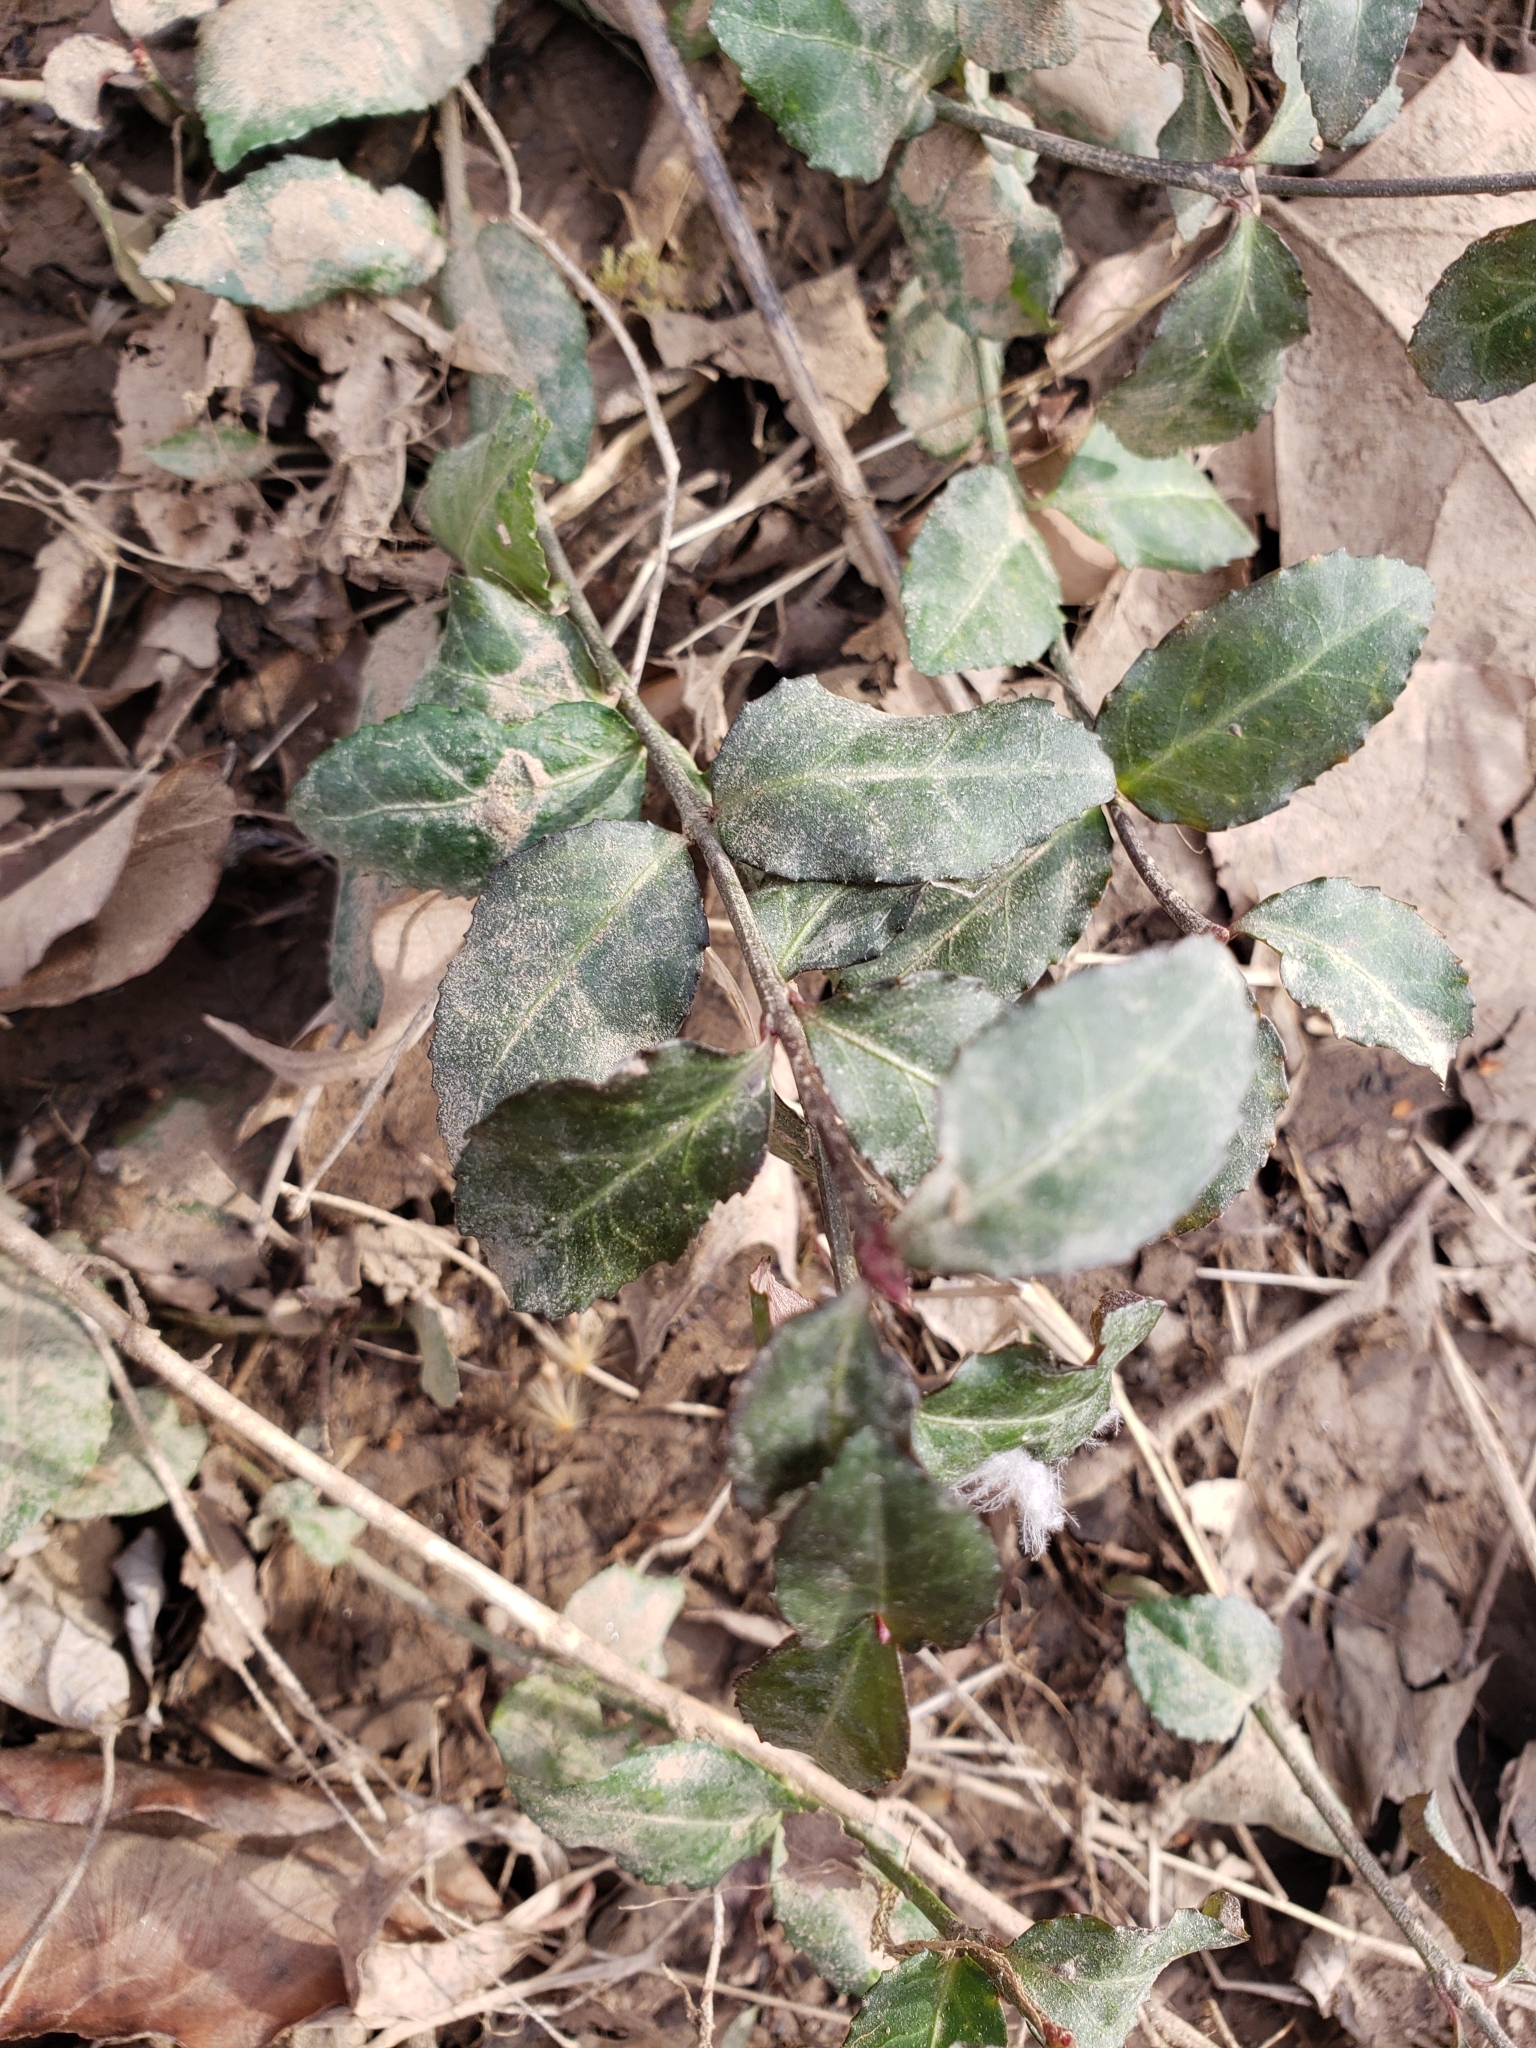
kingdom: Plantae
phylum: Tracheophyta
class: Magnoliopsida
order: Celastrales
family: Celastraceae
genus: Euonymus
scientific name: Euonymus fortunei
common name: Climbing euonymus
